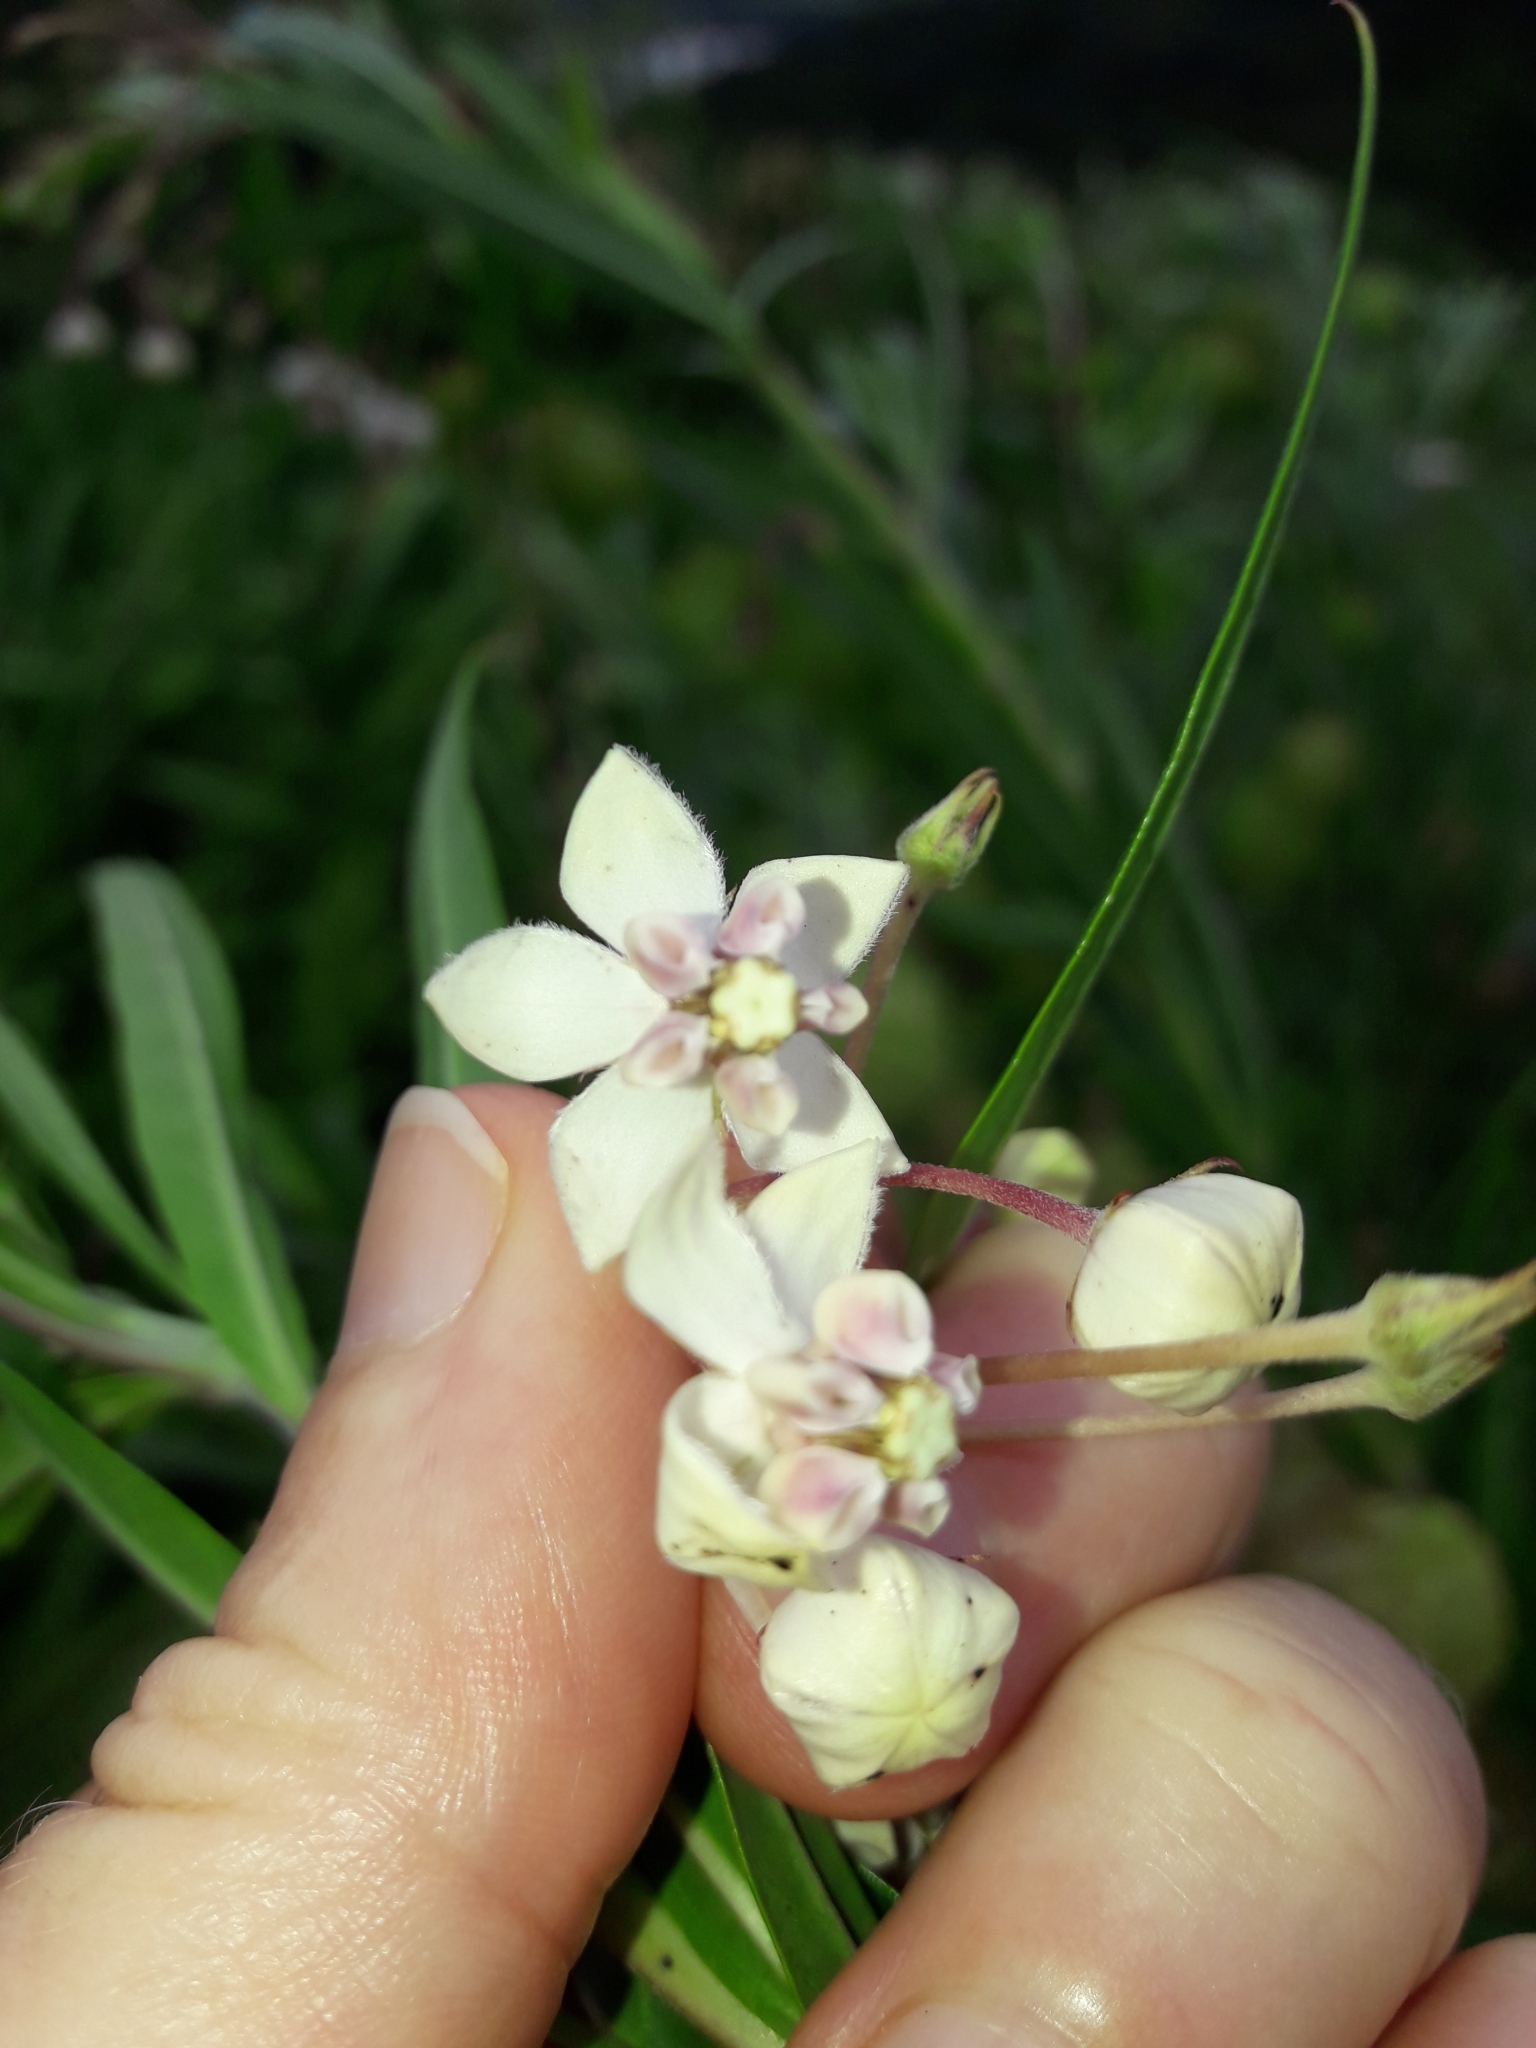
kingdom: Plantae
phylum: Tracheophyta
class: Magnoliopsida
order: Gentianales
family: Apocynaceae
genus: Gomphocarpus
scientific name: Gomphocarpus physocarpus
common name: Balloon cotton bush
